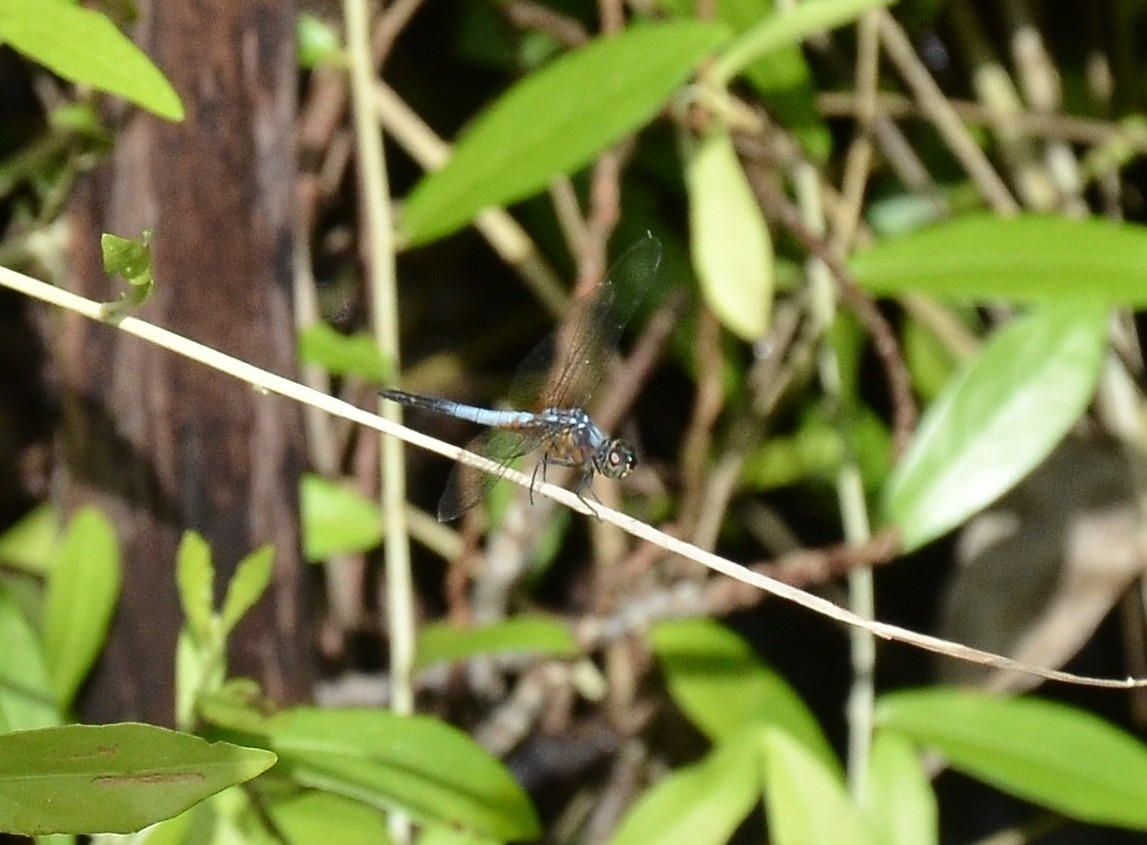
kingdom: Animalia
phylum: Arthropoda
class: Insecta
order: Odonata
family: Libellulidae
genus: Brachydiplax
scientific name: Brachydiplax chalybea
